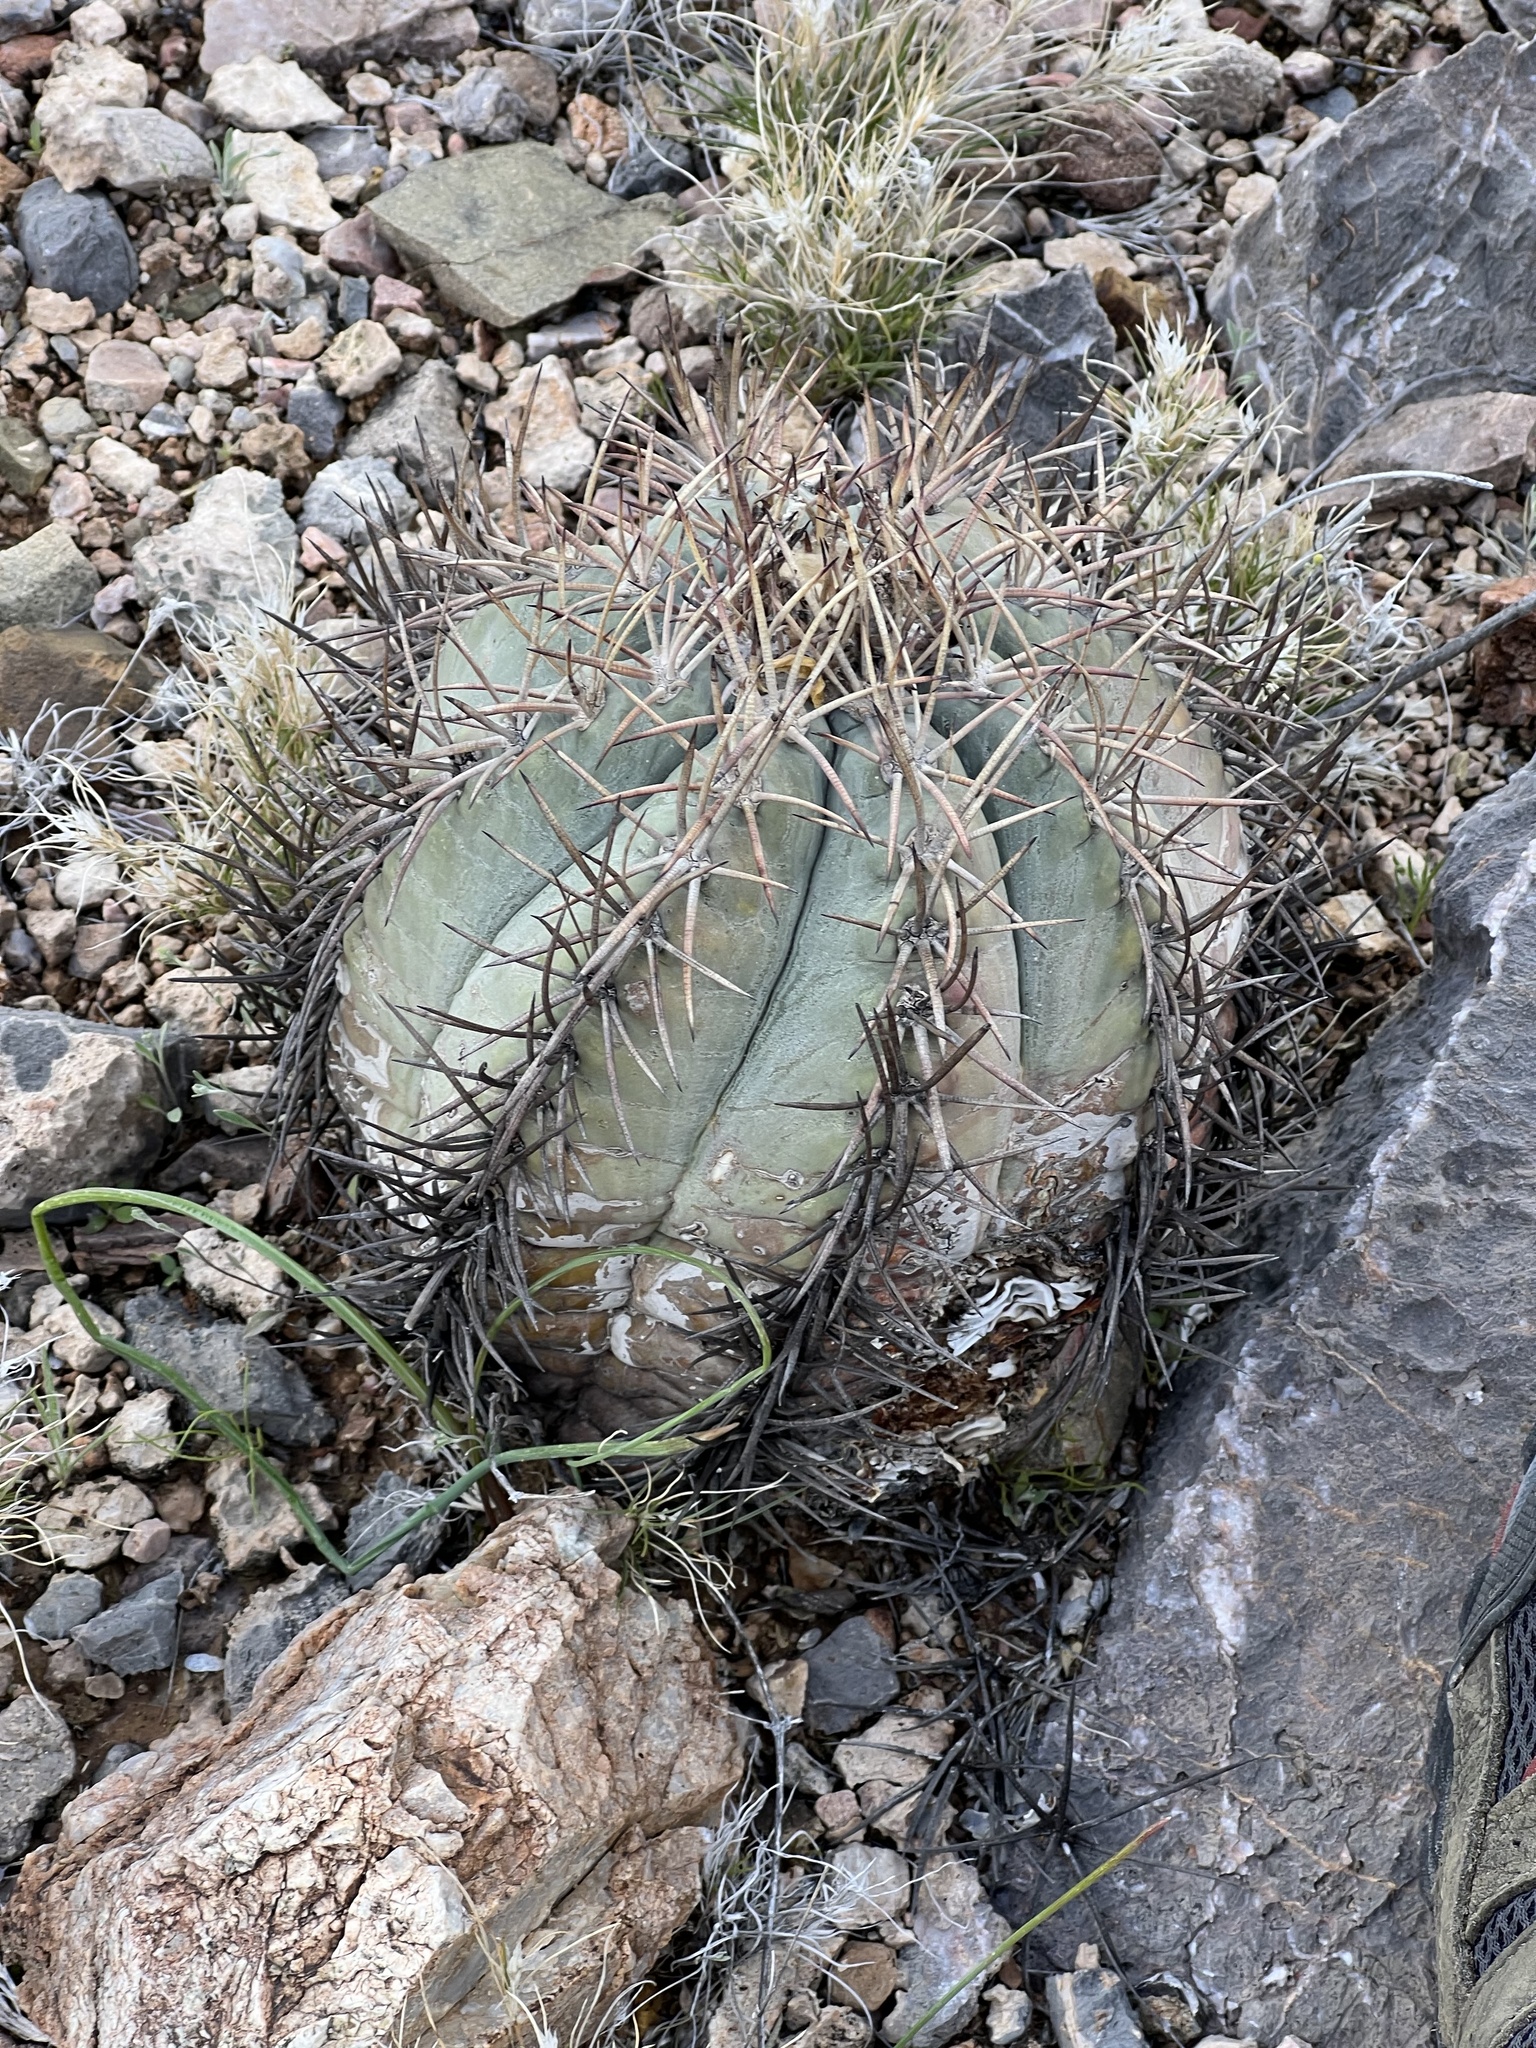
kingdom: Plantae
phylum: Tracheophyta
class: Magnoliopsida
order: Caryophyllales
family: Cactaceae
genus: Echinocactus
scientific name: Echinocactus horizonthalonius
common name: Devilshead
